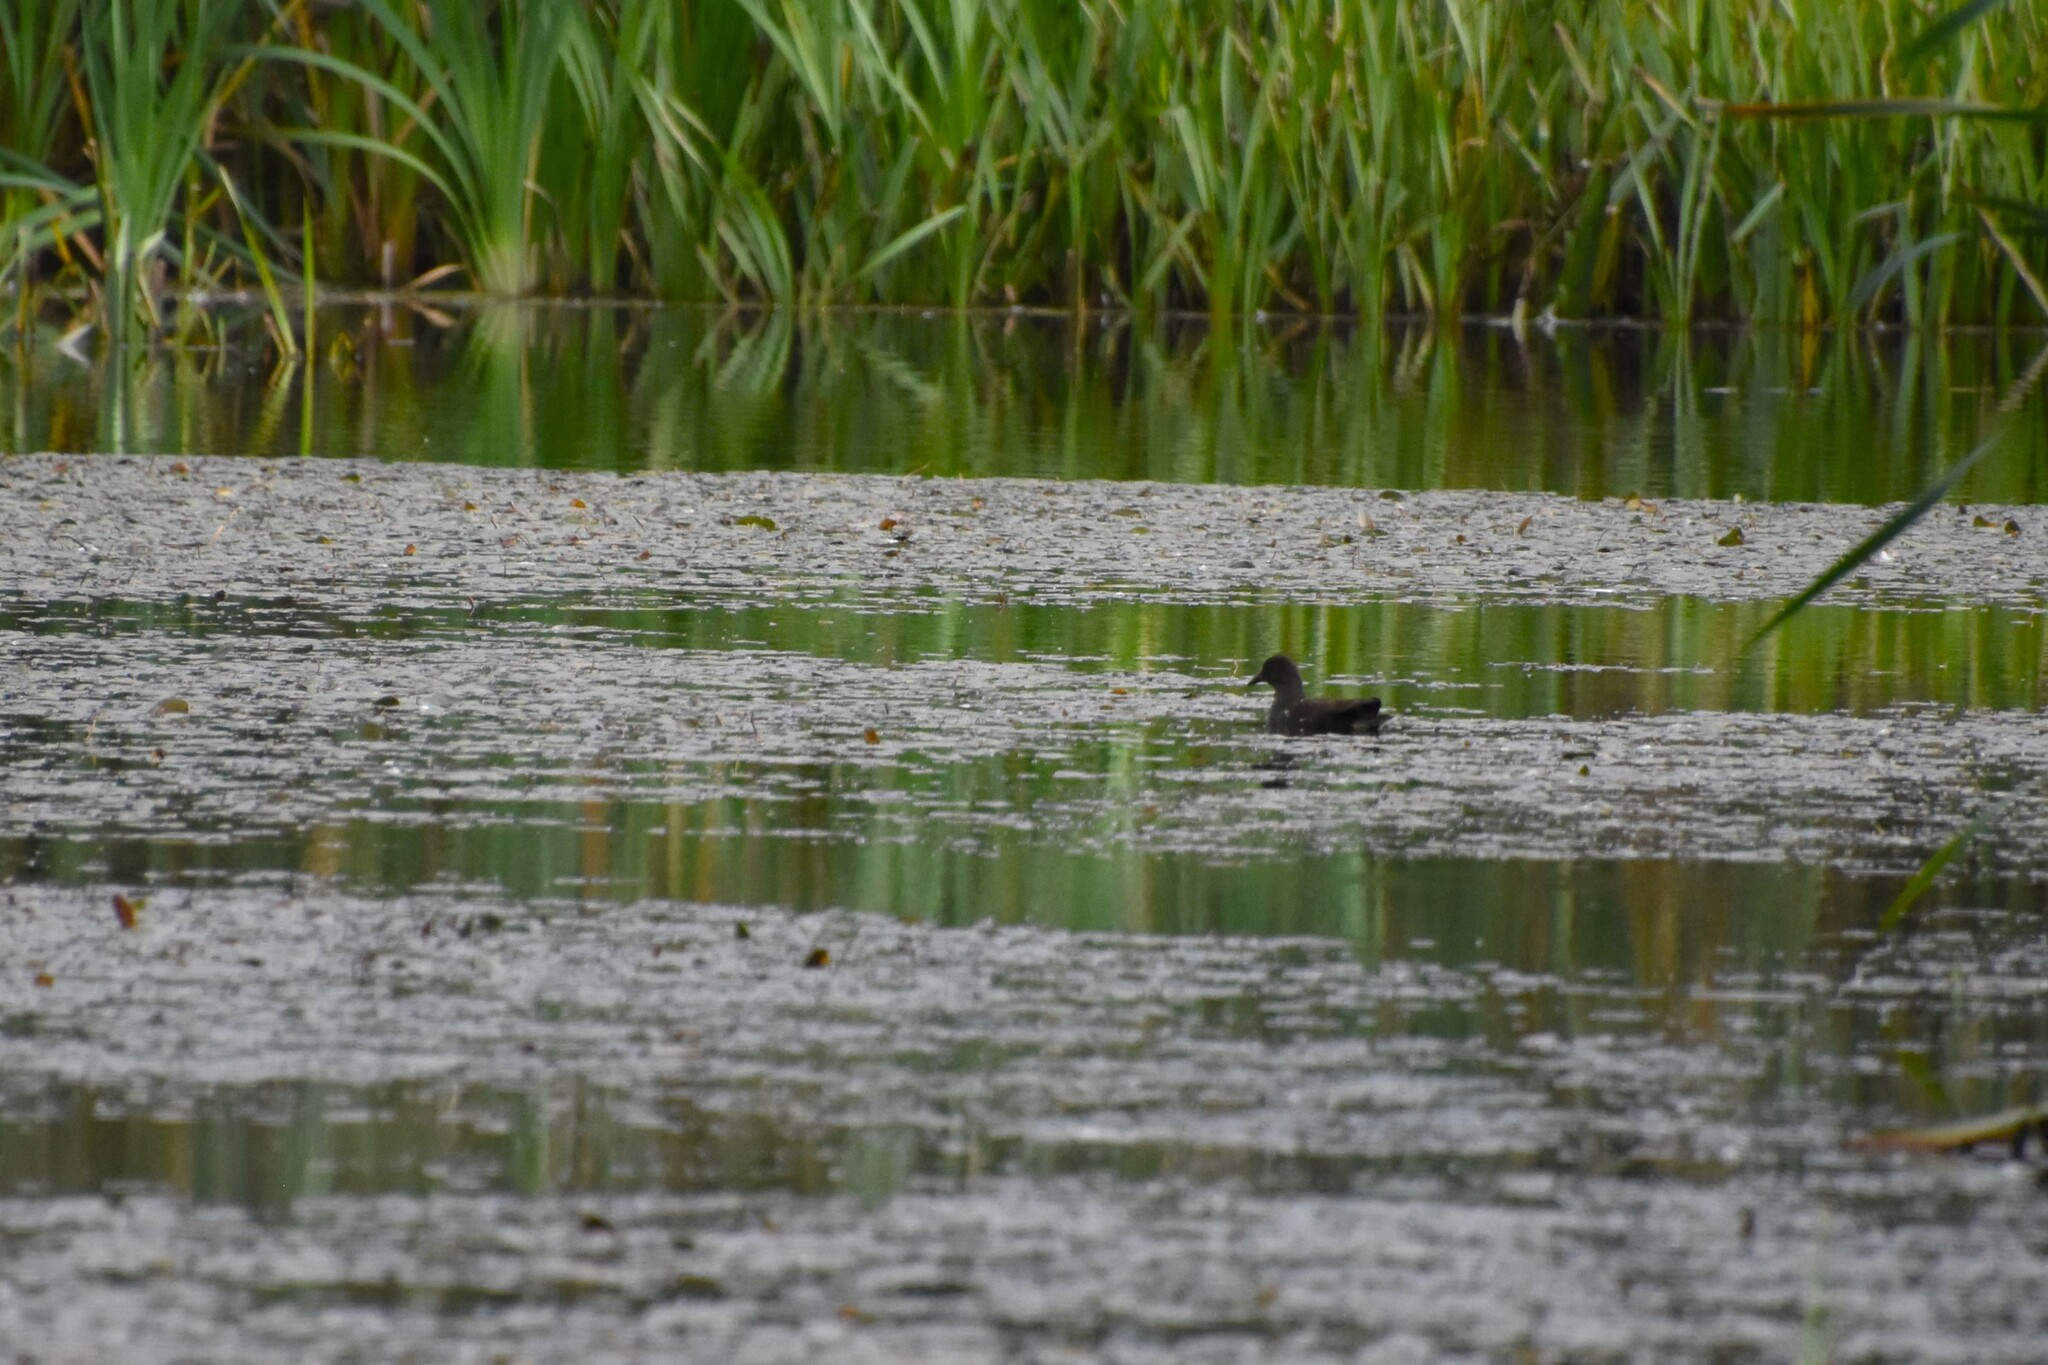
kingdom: Animalia
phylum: Chordata
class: Aves
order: Gruiformes
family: Rallidae
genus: Gallinula
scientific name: Gallinula chloropus
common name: Common moorhen
